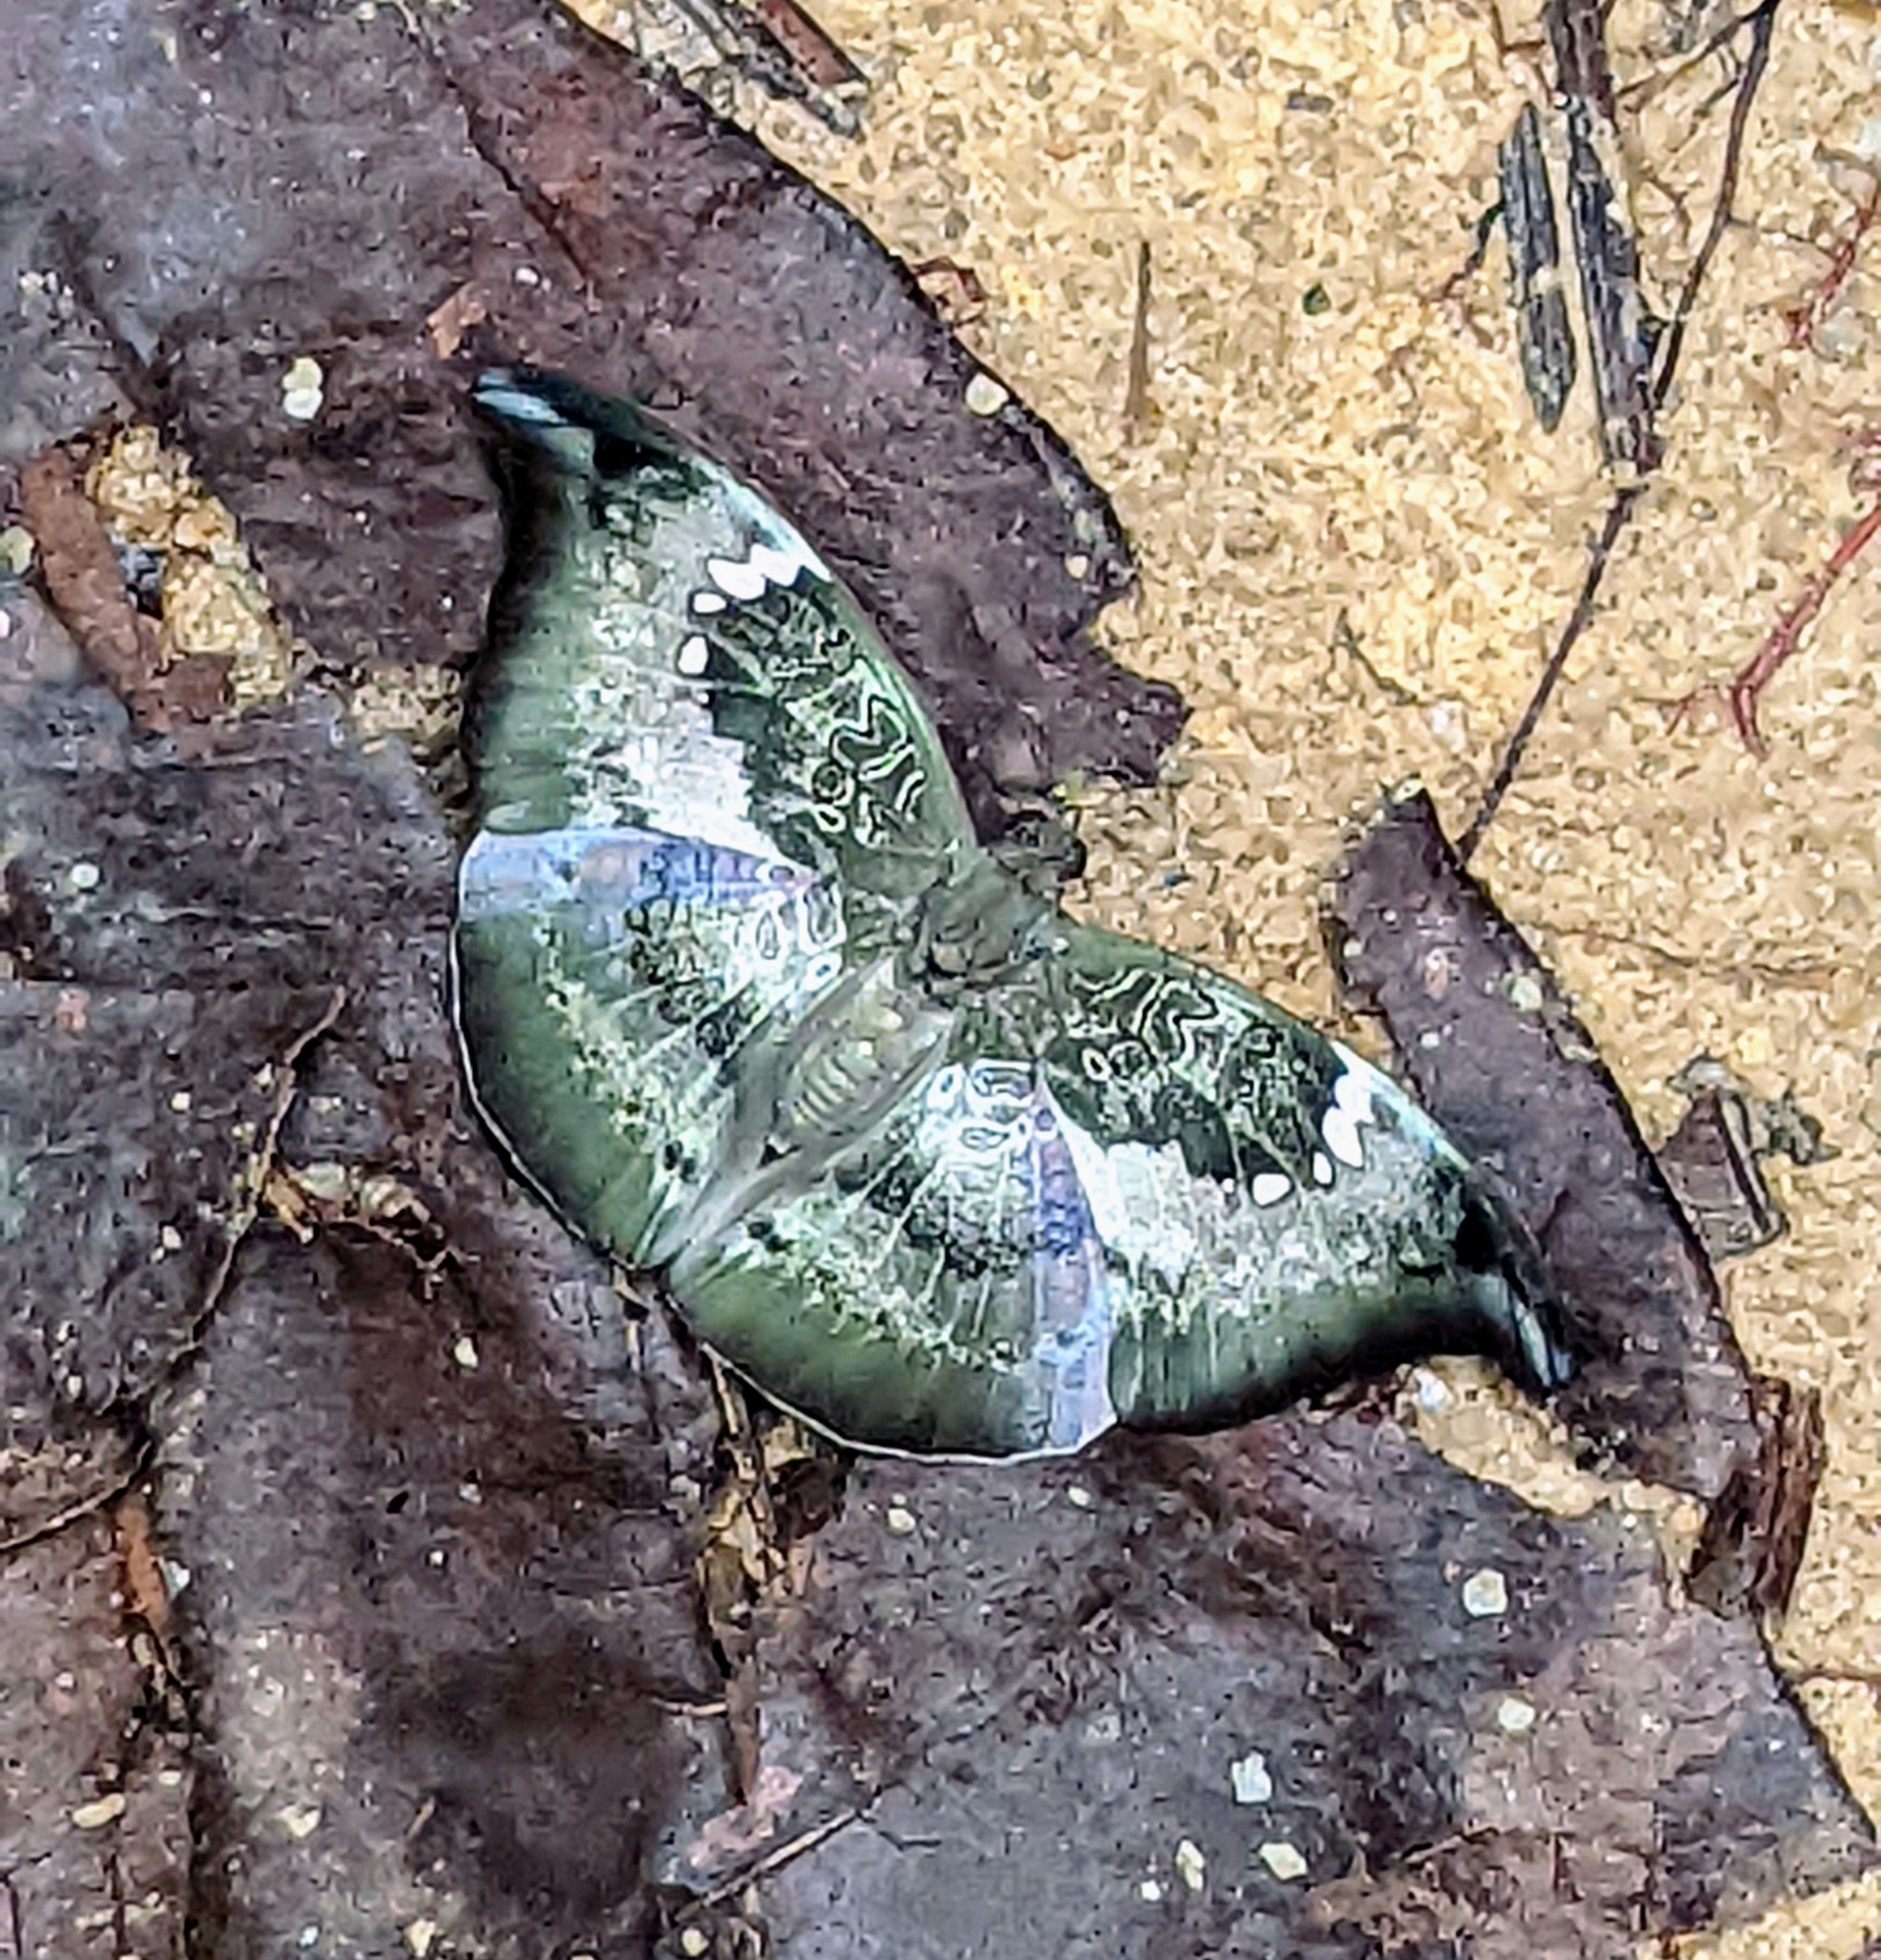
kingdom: Animalia
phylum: Arthropoda
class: Insecta
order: Lepidoptera
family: Nymphalidae
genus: Euthalia
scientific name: Euthalia anosia
